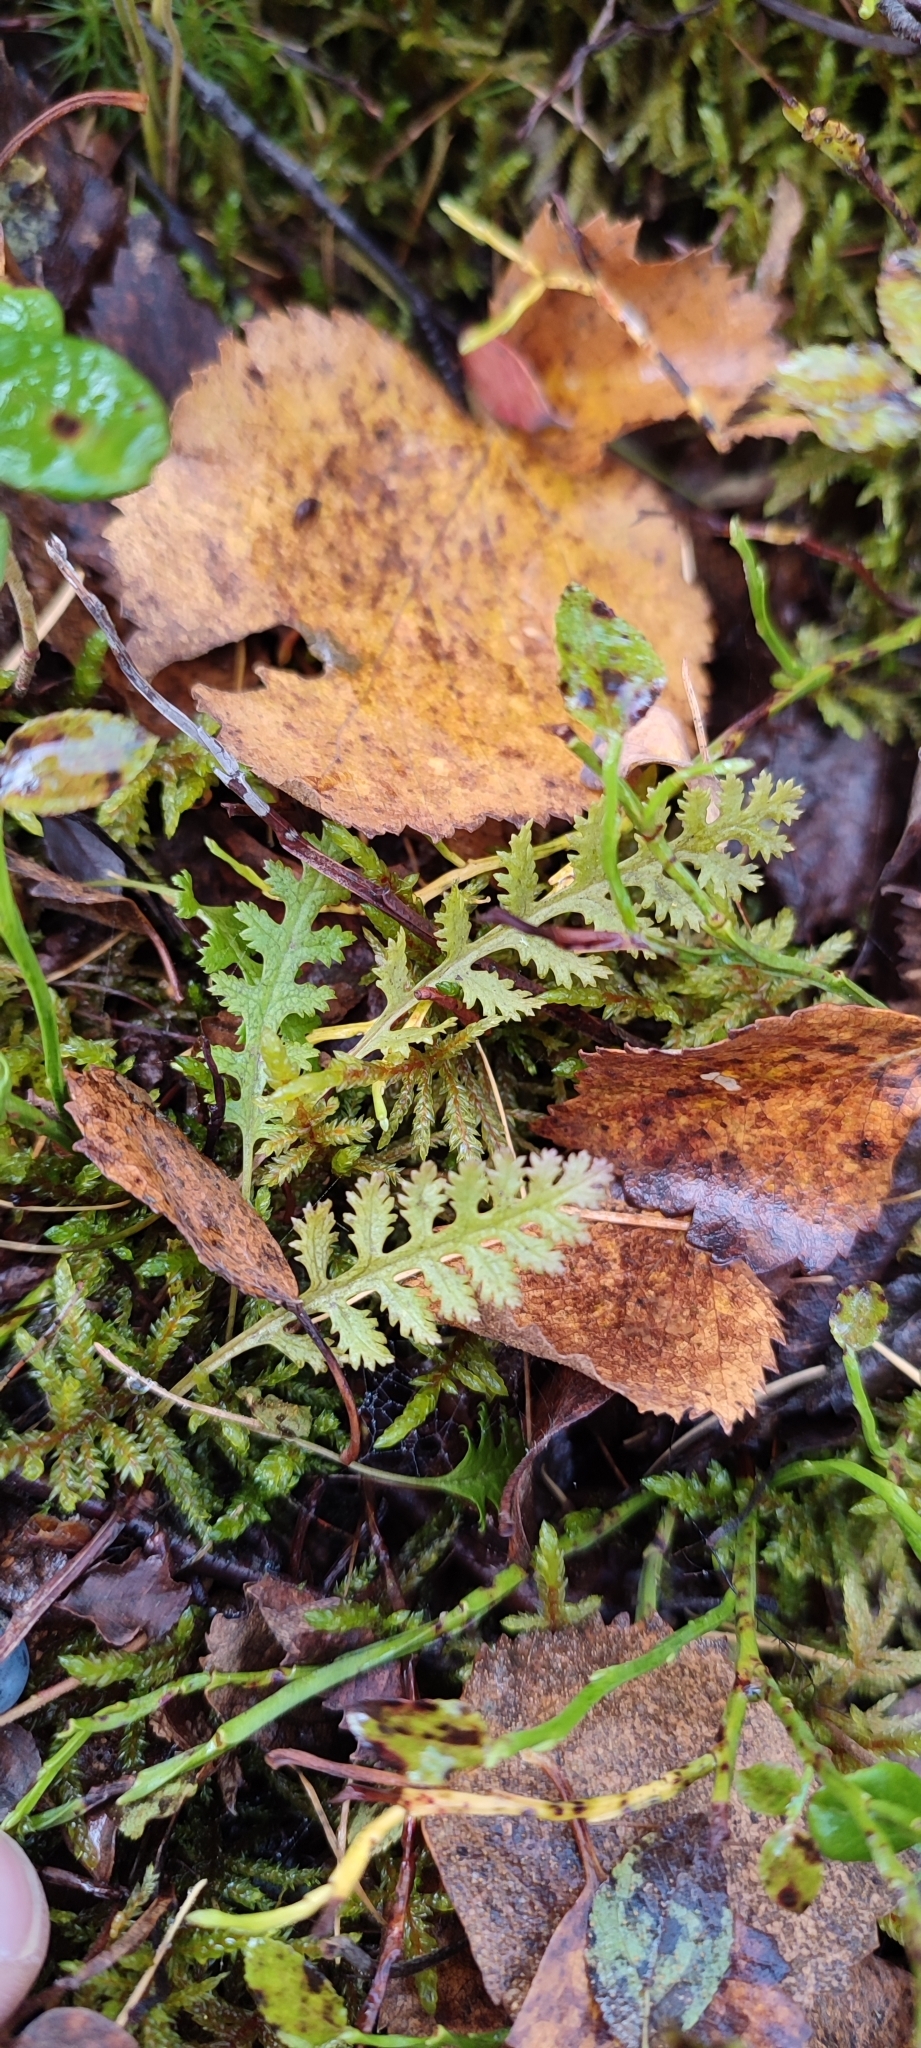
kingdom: Plantae
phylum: Tracheophyta
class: Magnoliopsida
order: Lamiales
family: Orobanchaceae
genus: Pedicularis
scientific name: Pedicularis lapponica
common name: Lapland lousewort
